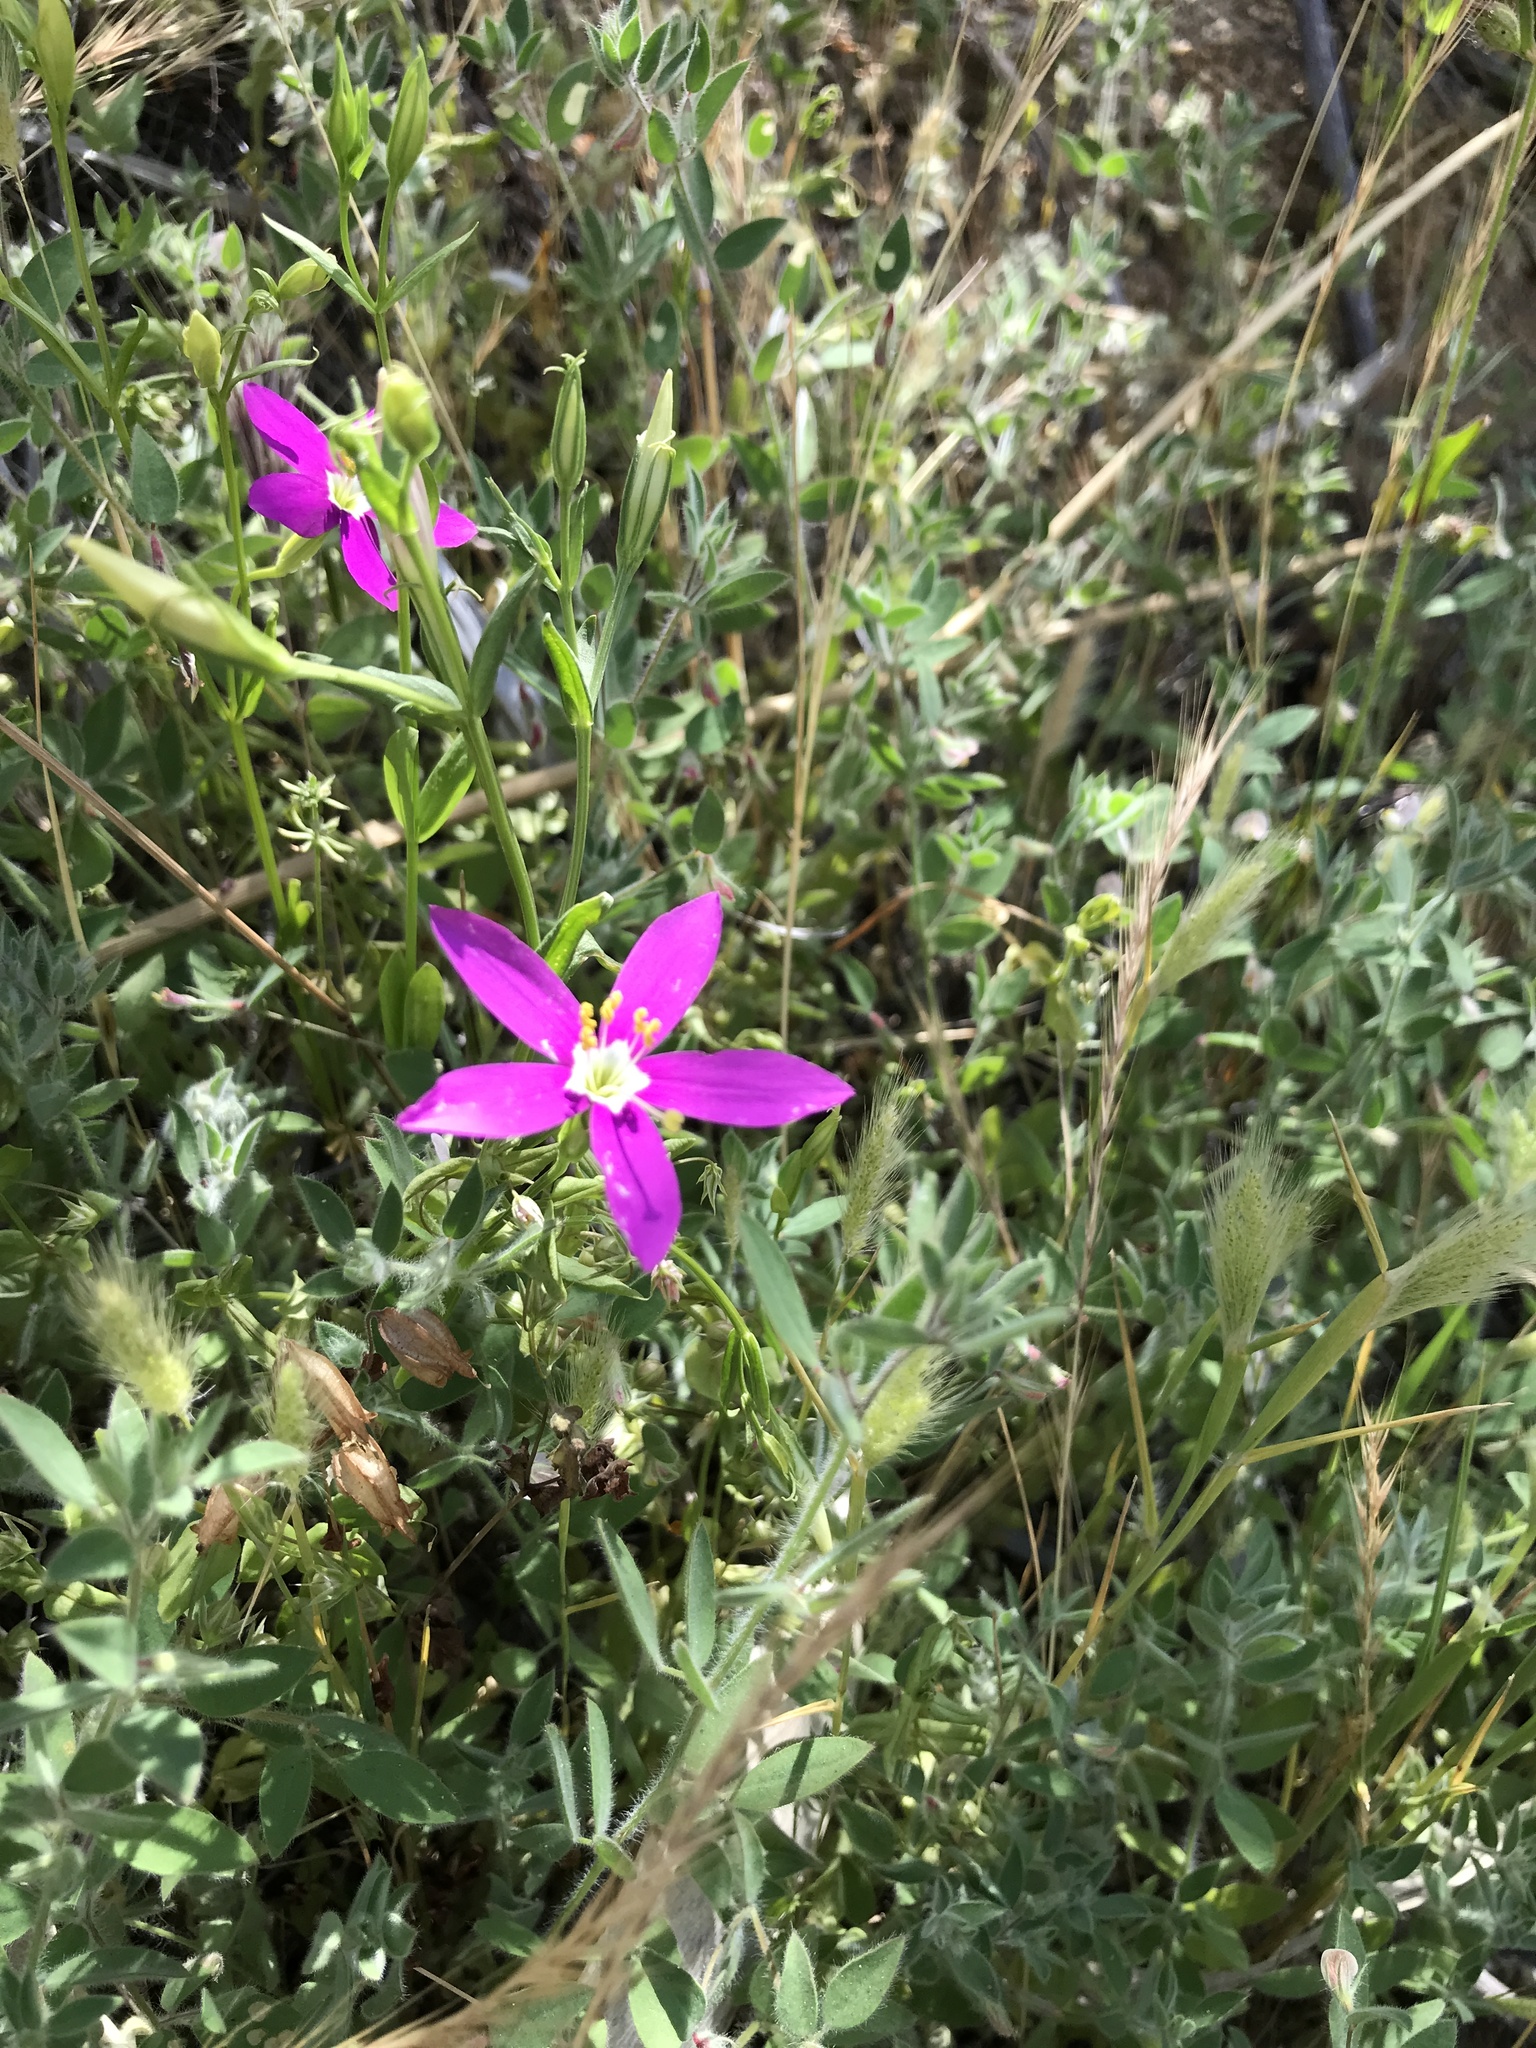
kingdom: Plantae
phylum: Tracheophyta
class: Magnoliopsida
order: Gentianales
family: Gentianaceae
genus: Zeltnera
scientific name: Zeltnera venusta
